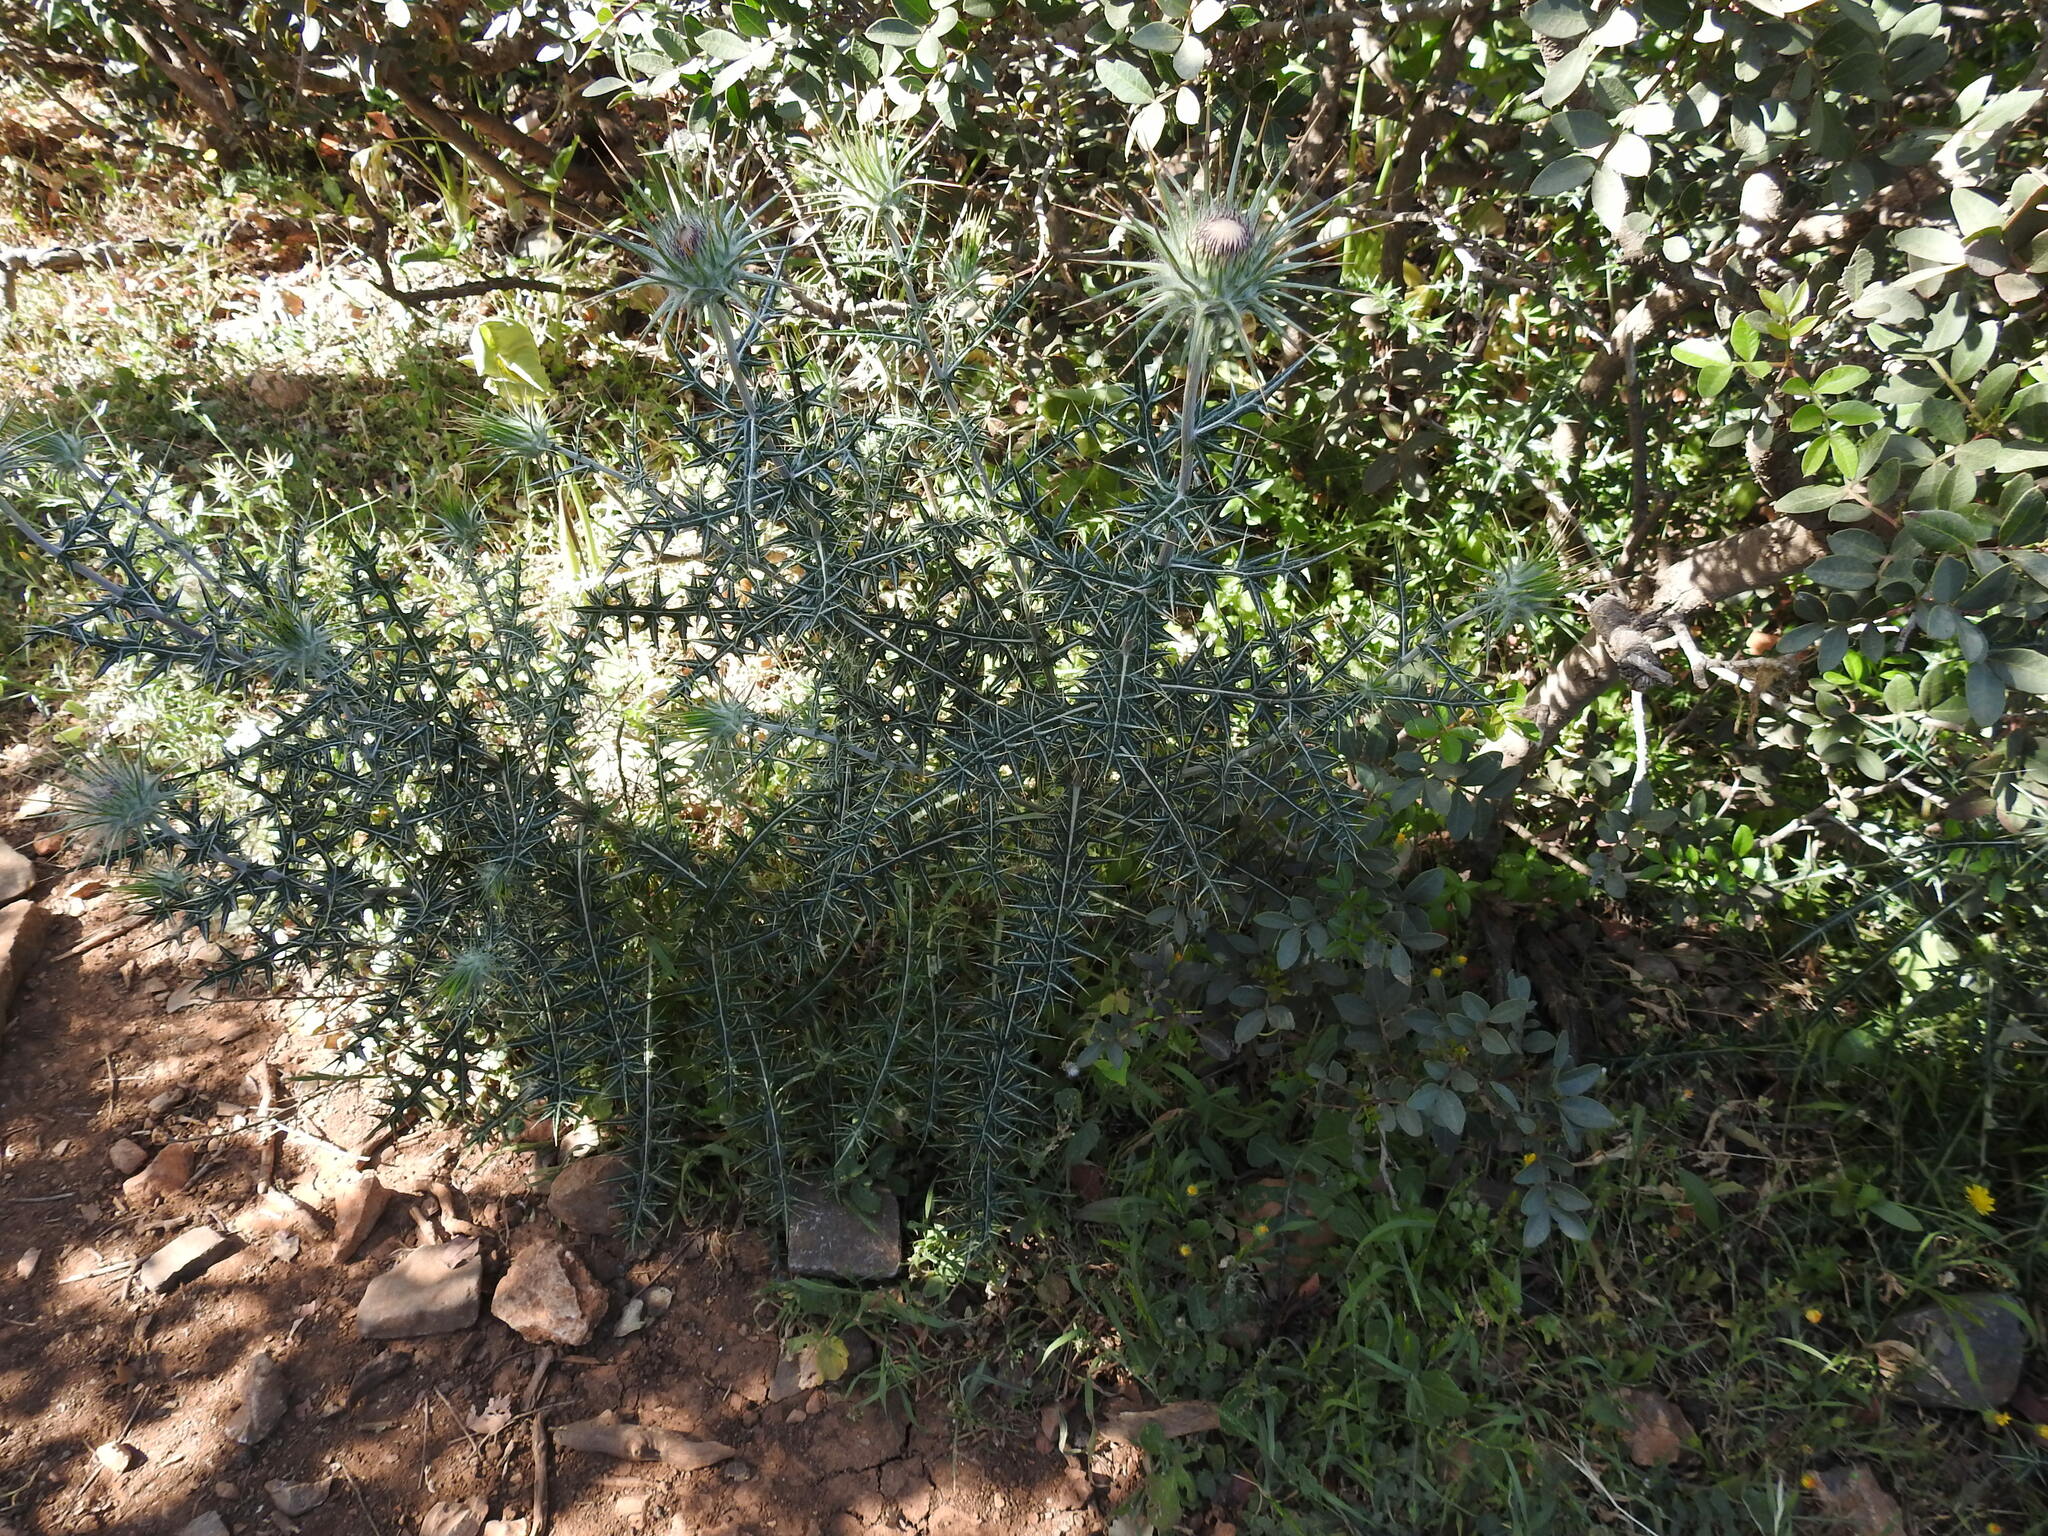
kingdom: Plantae
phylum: Tracheophyta
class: Magnoliopsida
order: Asterales
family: Asteraceae
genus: Lamyropsis
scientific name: Lamyropsis cynaroides
